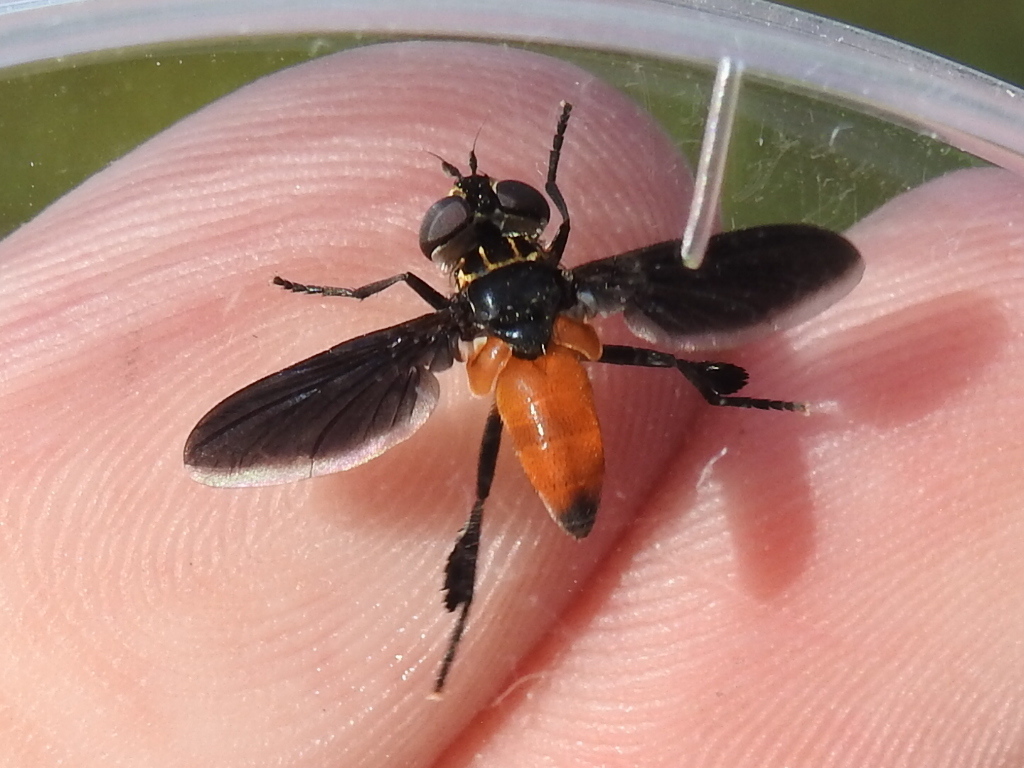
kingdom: Animalia
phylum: Arthropoda
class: Insecta
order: Diptera
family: Tachinidae
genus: Trichopoda
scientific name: Trichopoda pennipes
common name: Tachinid fly
